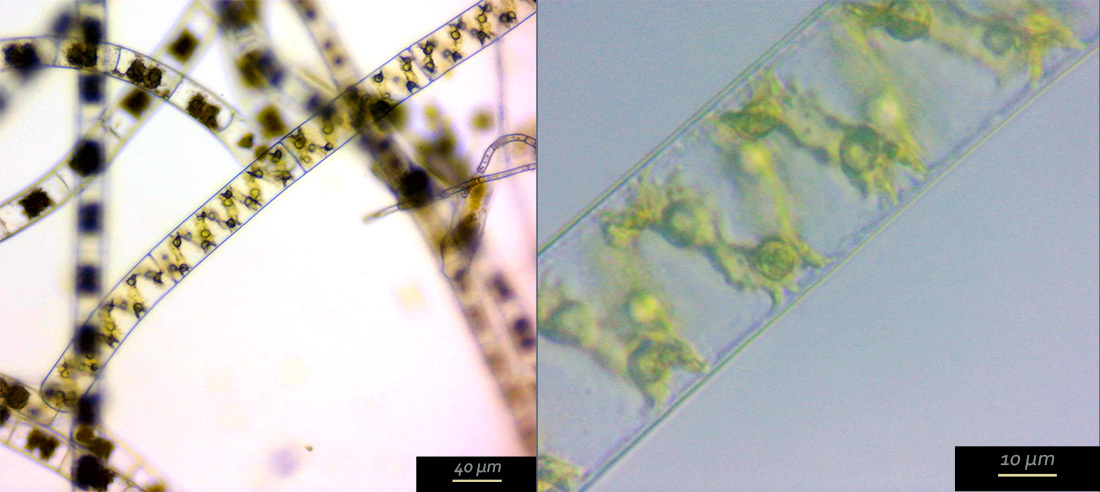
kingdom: Plantae
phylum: Charophyta
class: Zygnematophyceae
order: Zygnematales
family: Zygnemataceae
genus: Spirogyra
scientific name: Spirogyra
